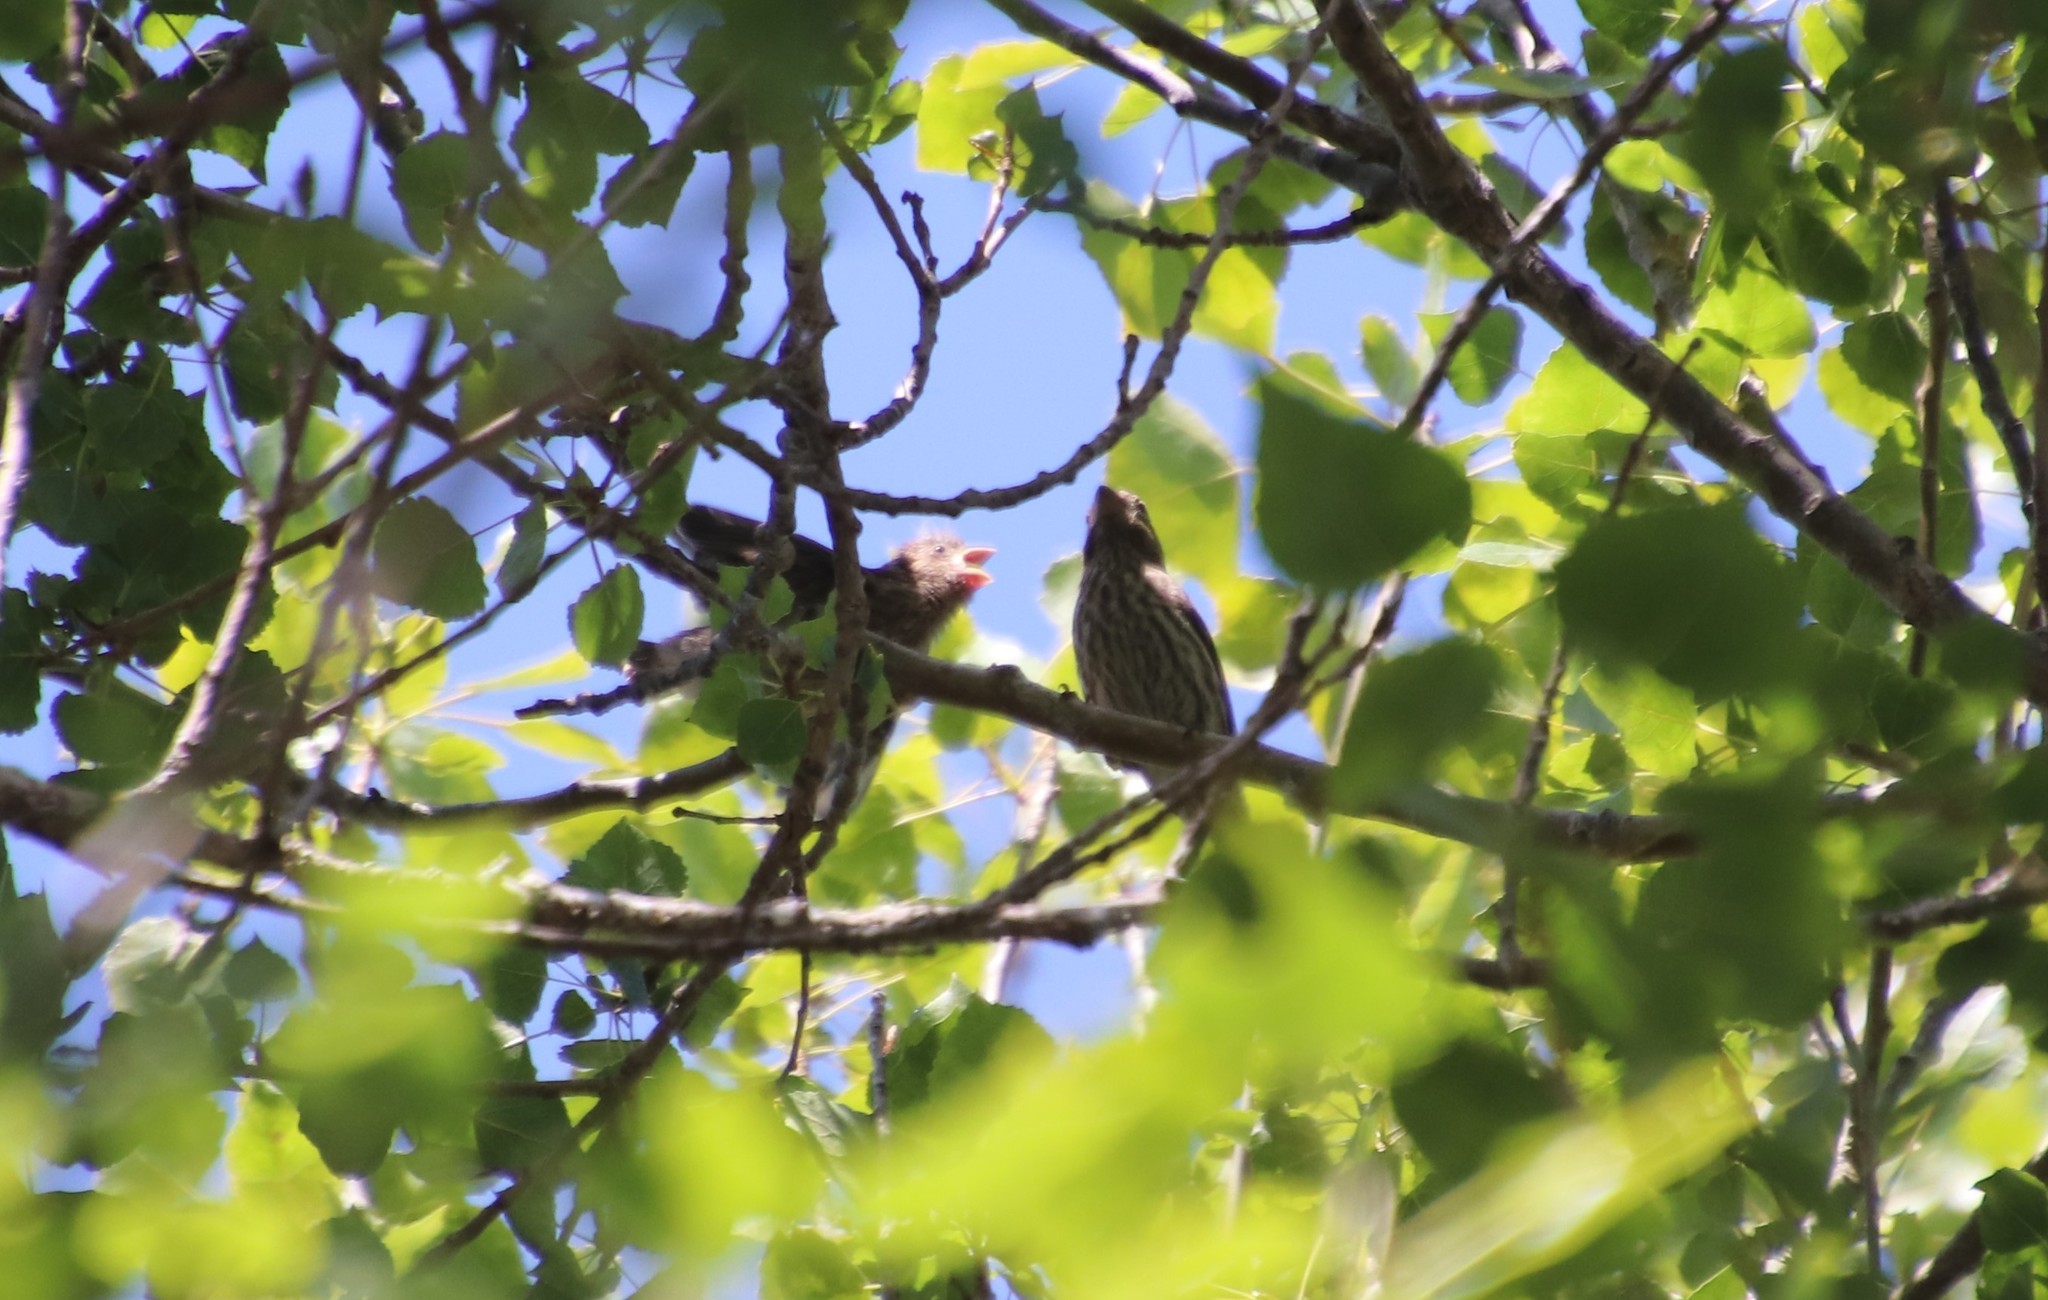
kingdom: Animalia
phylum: Chordata
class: Aves
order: Passeriformes
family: Fringillidae
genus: Haemorhous
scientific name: Haemorhous mexicanus
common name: House finch
